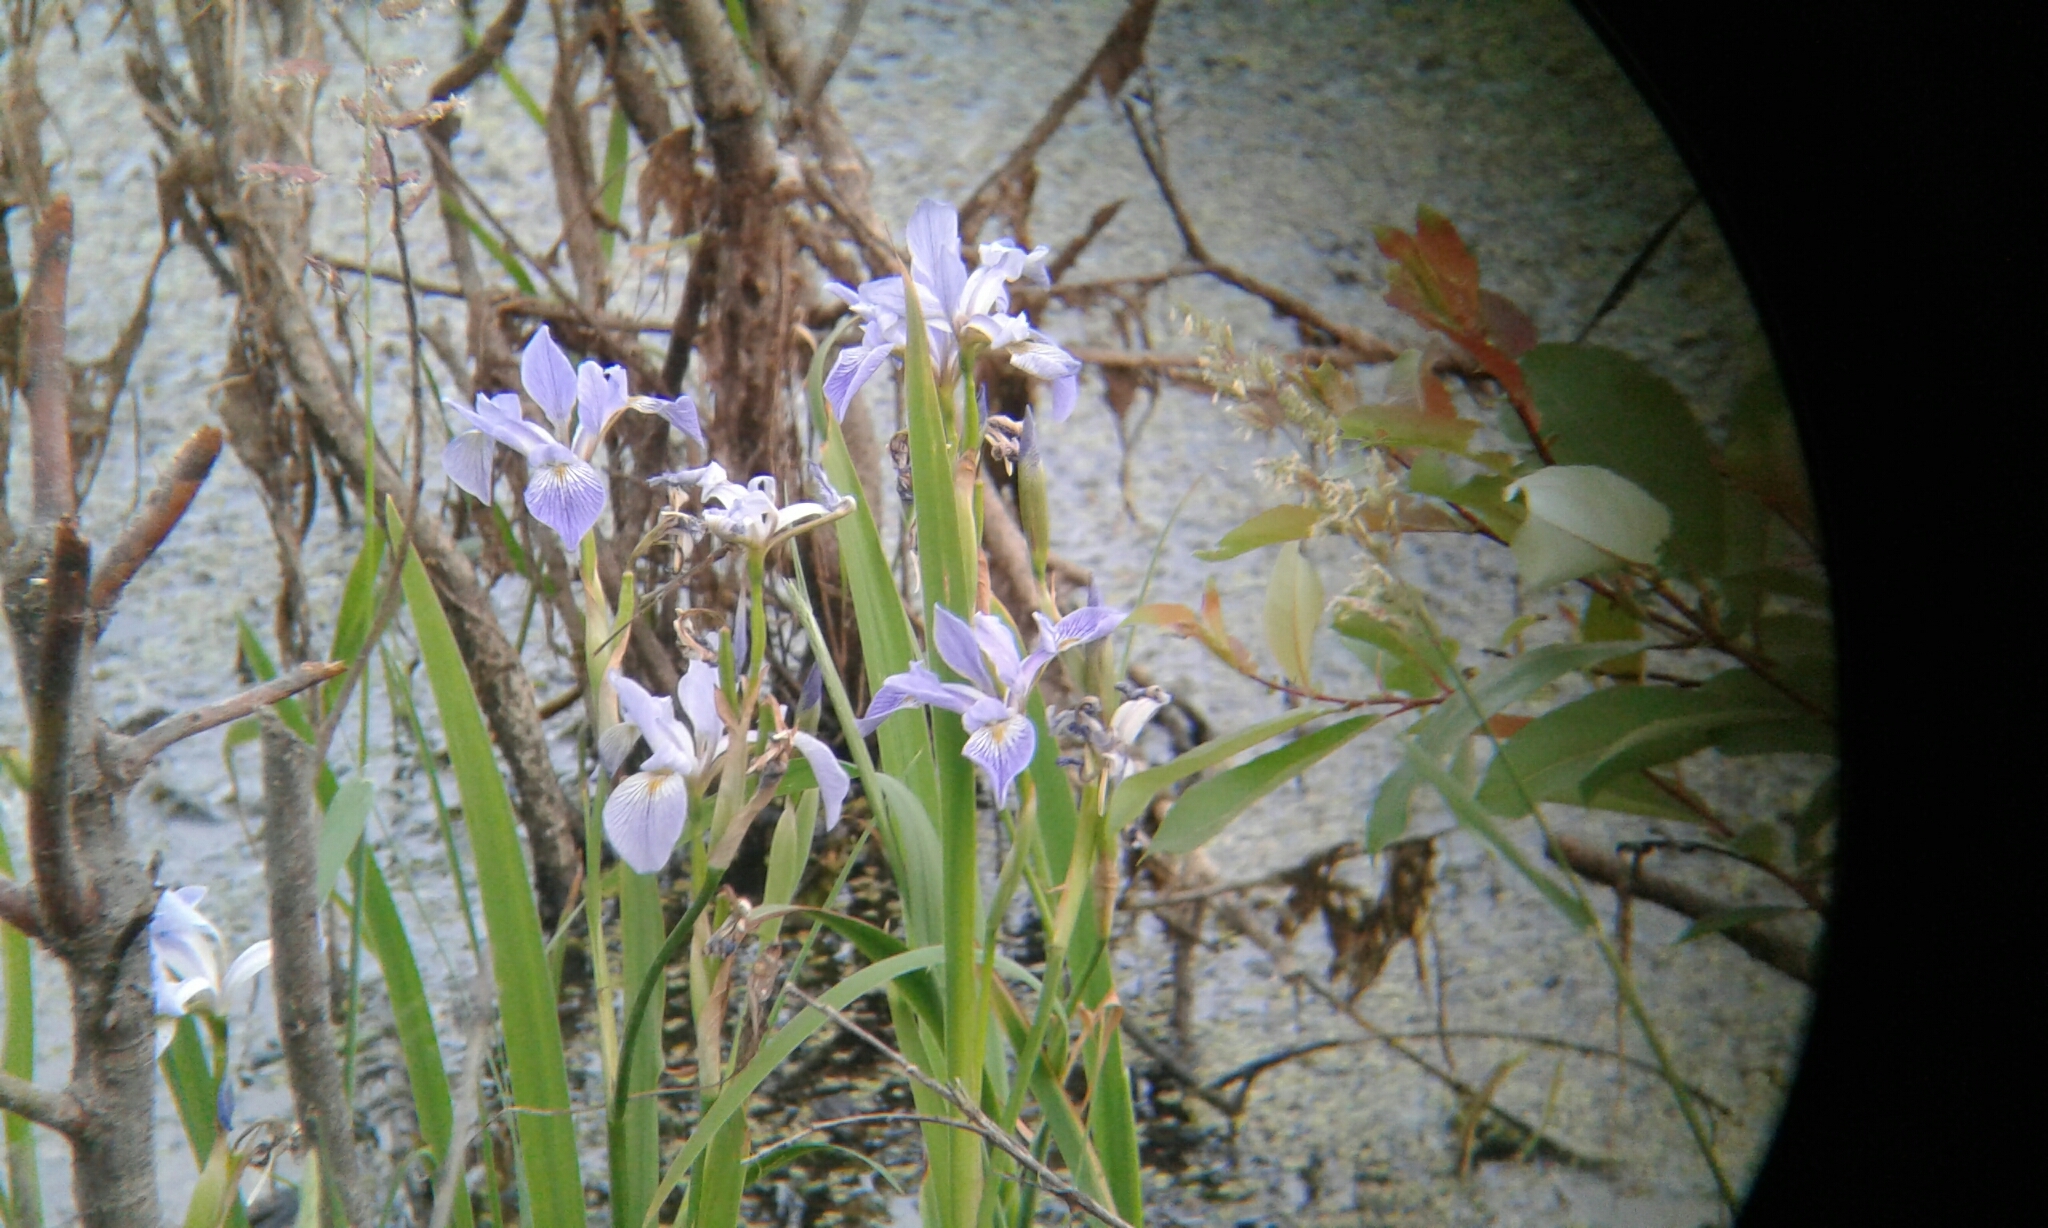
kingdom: Plantae
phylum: Tracheophyta
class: Liliopsida
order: Asparagales
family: Iridaceae
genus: Iris
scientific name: Iris virginica
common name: Southern blue flag
